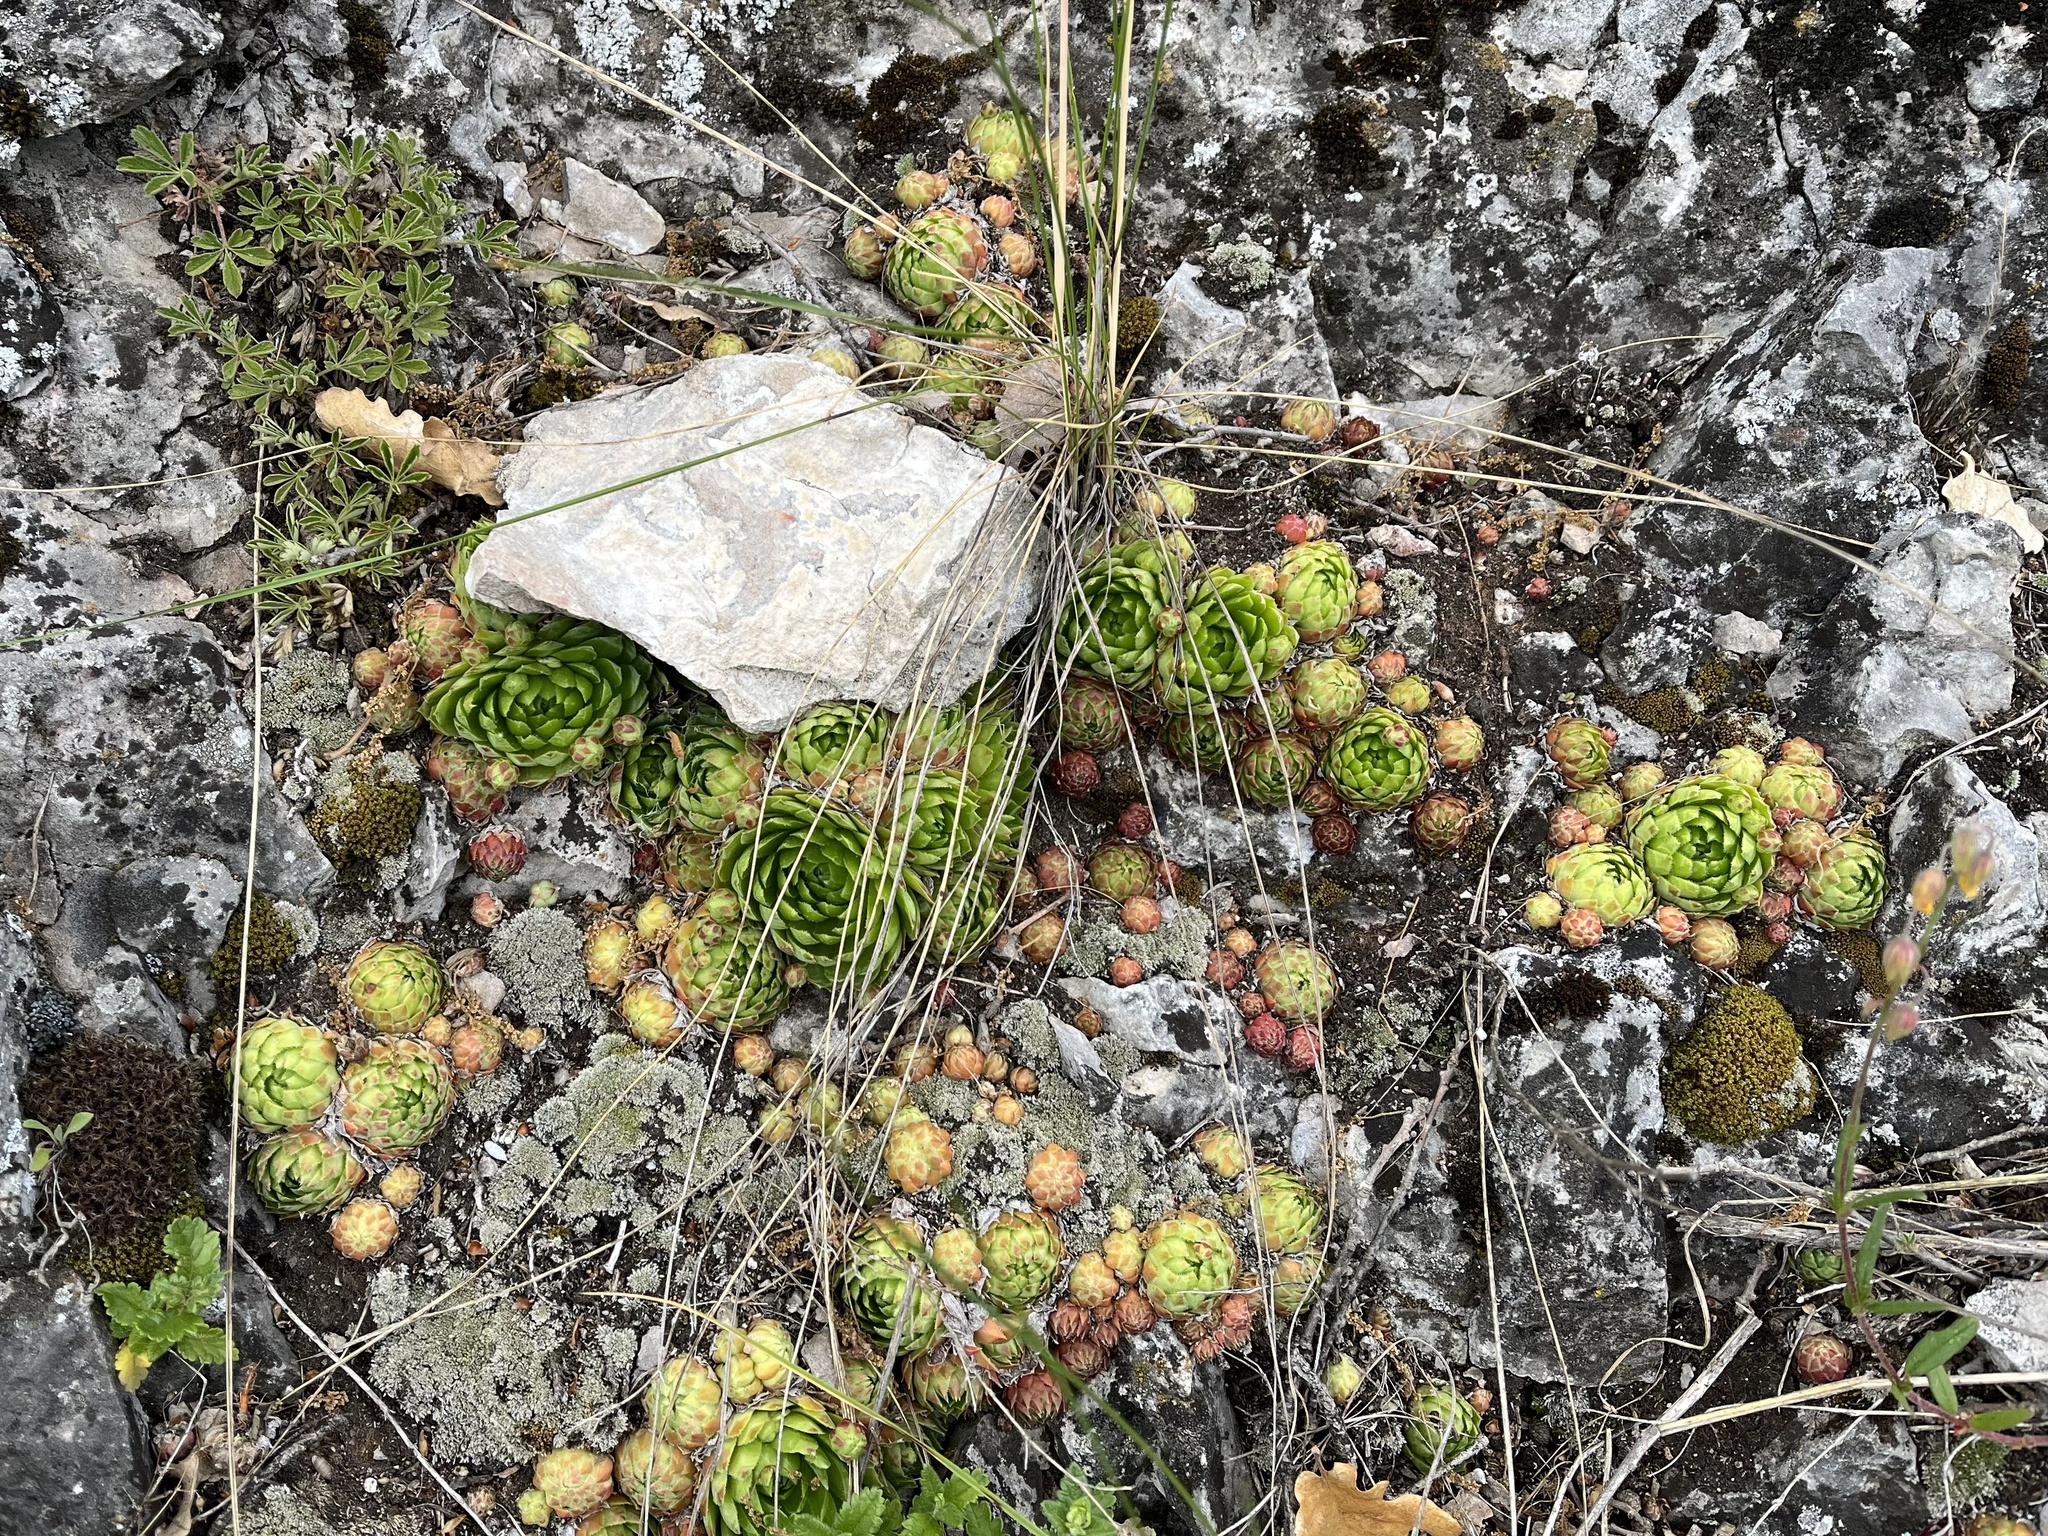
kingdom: Plantae
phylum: Tracheophyta
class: Magnoliopsida
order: Saxifragales
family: Crassulaceae
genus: Sempervivum
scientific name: Sempervivum globiferum
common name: Rolling hen-and-chicks
